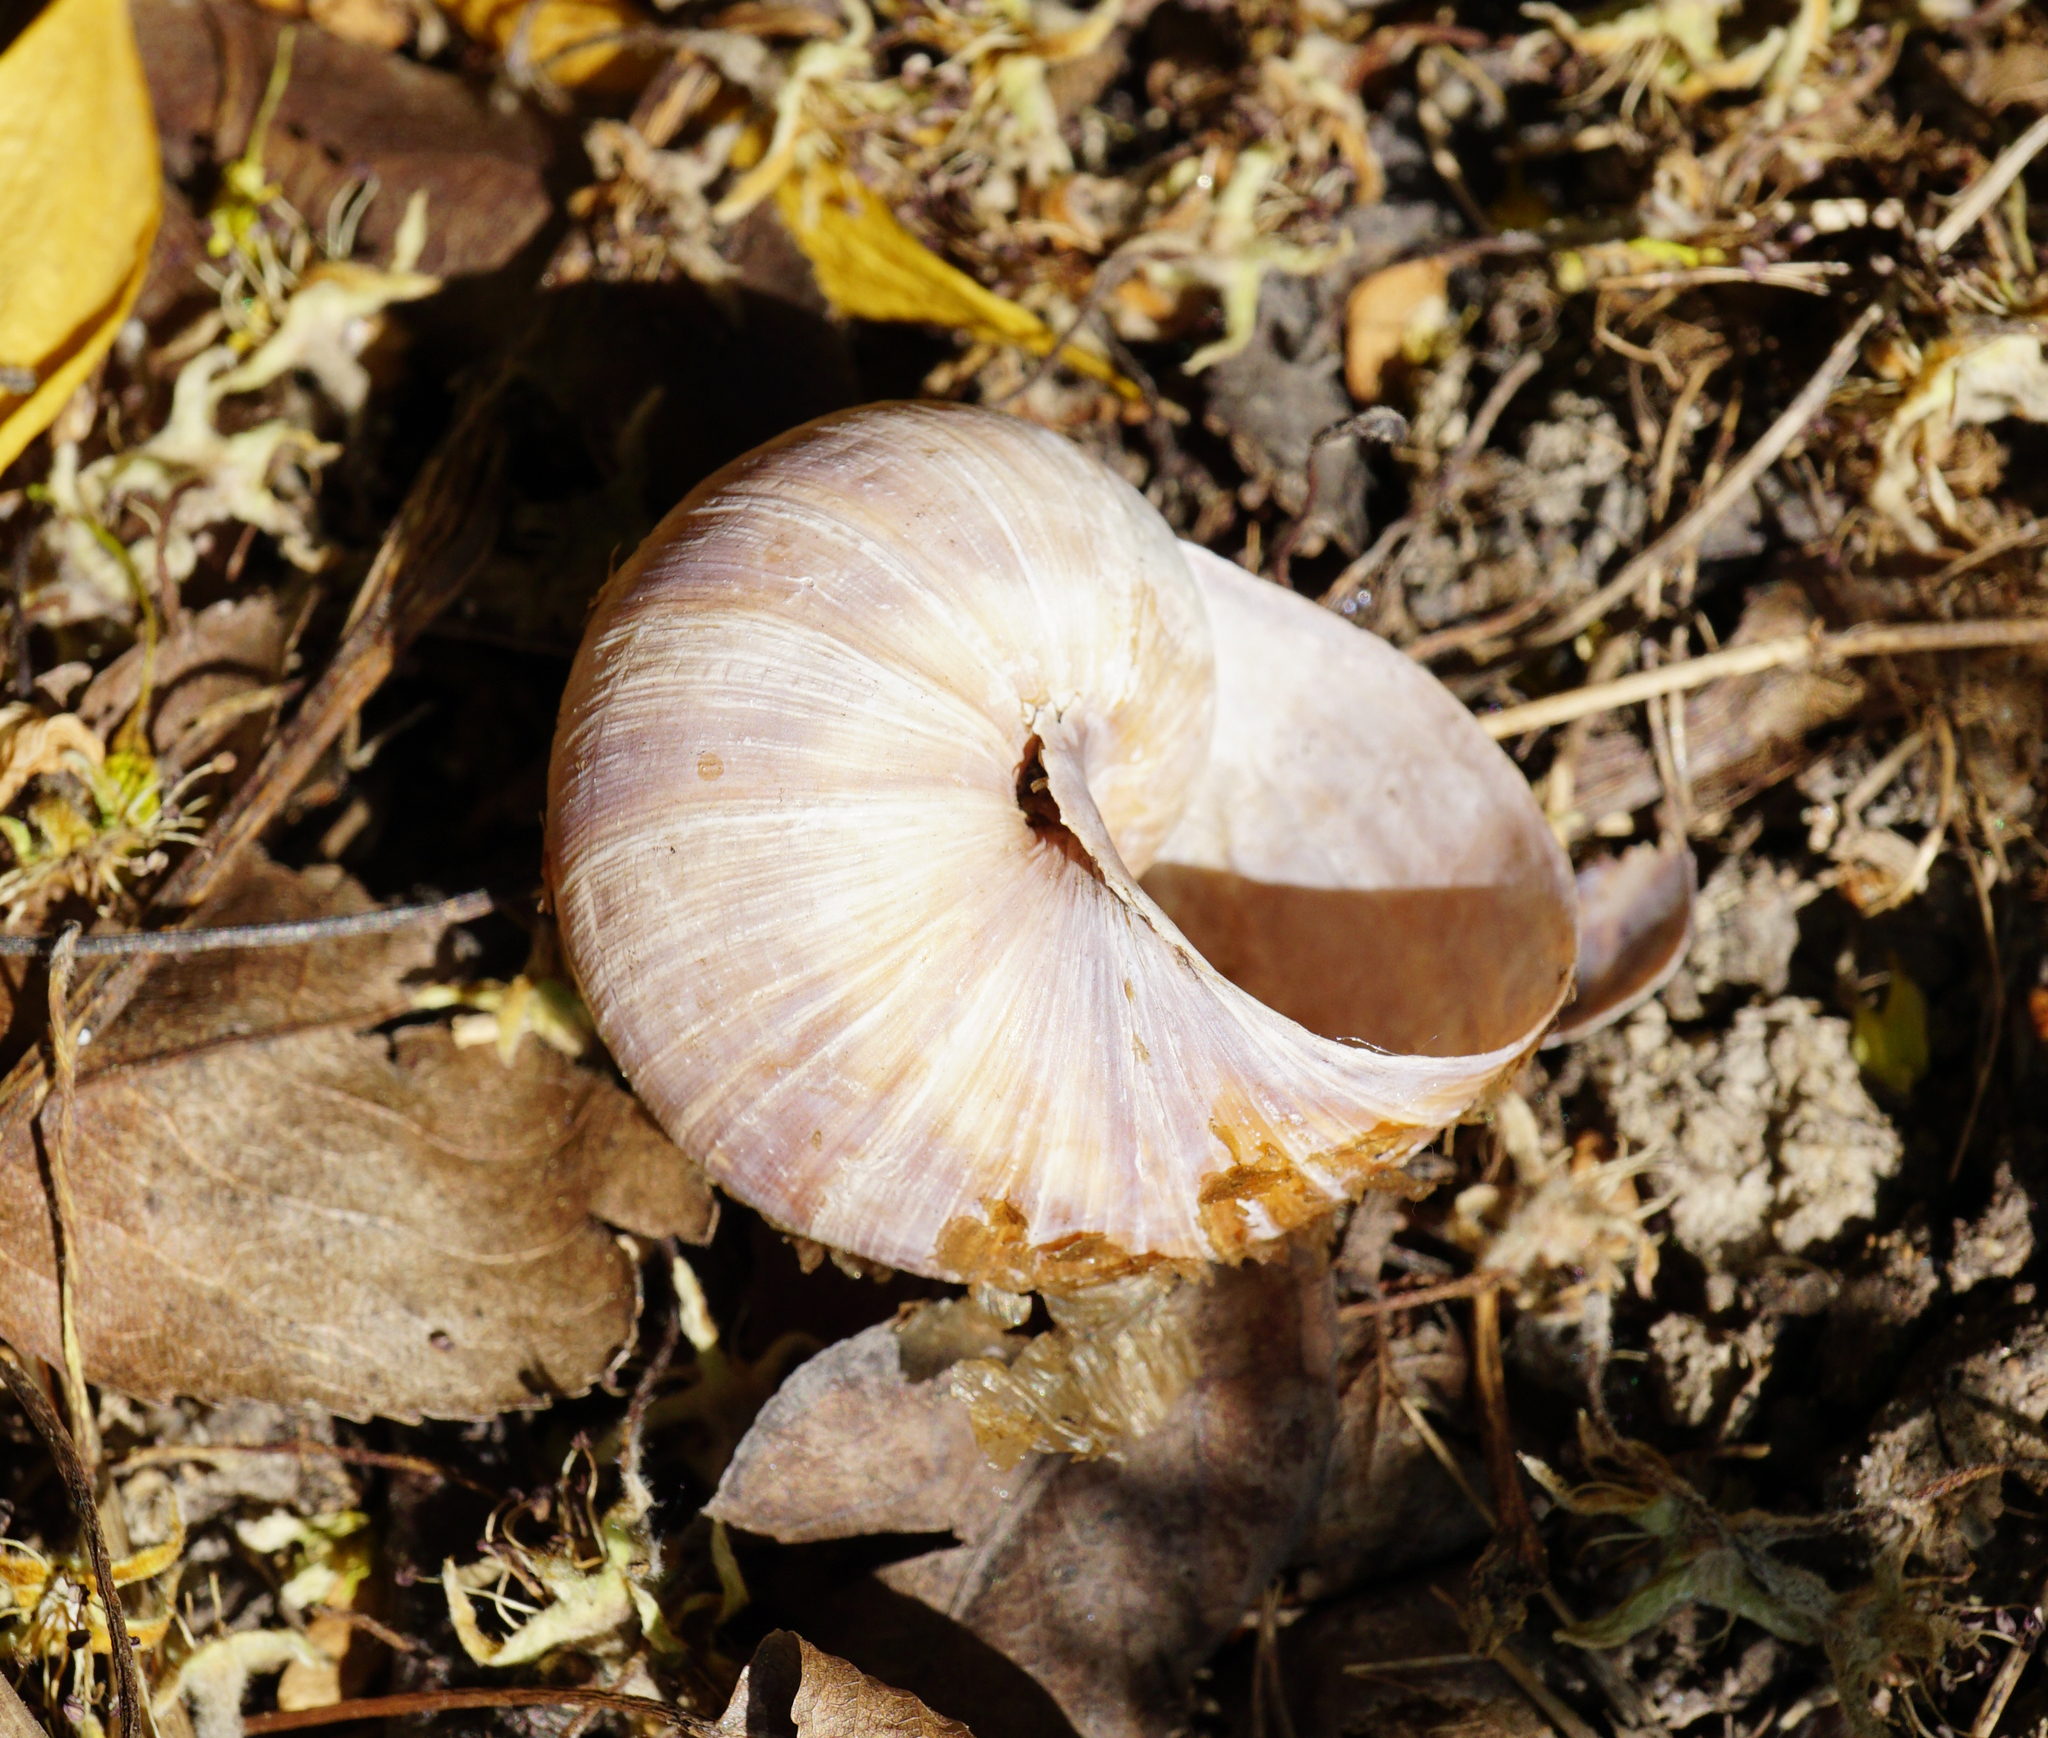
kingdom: Animalia
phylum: Mollusca
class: Gastropoda
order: Stylommatophora
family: Helicidae
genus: Helix
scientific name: Helix pomatia
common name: Roman snail
